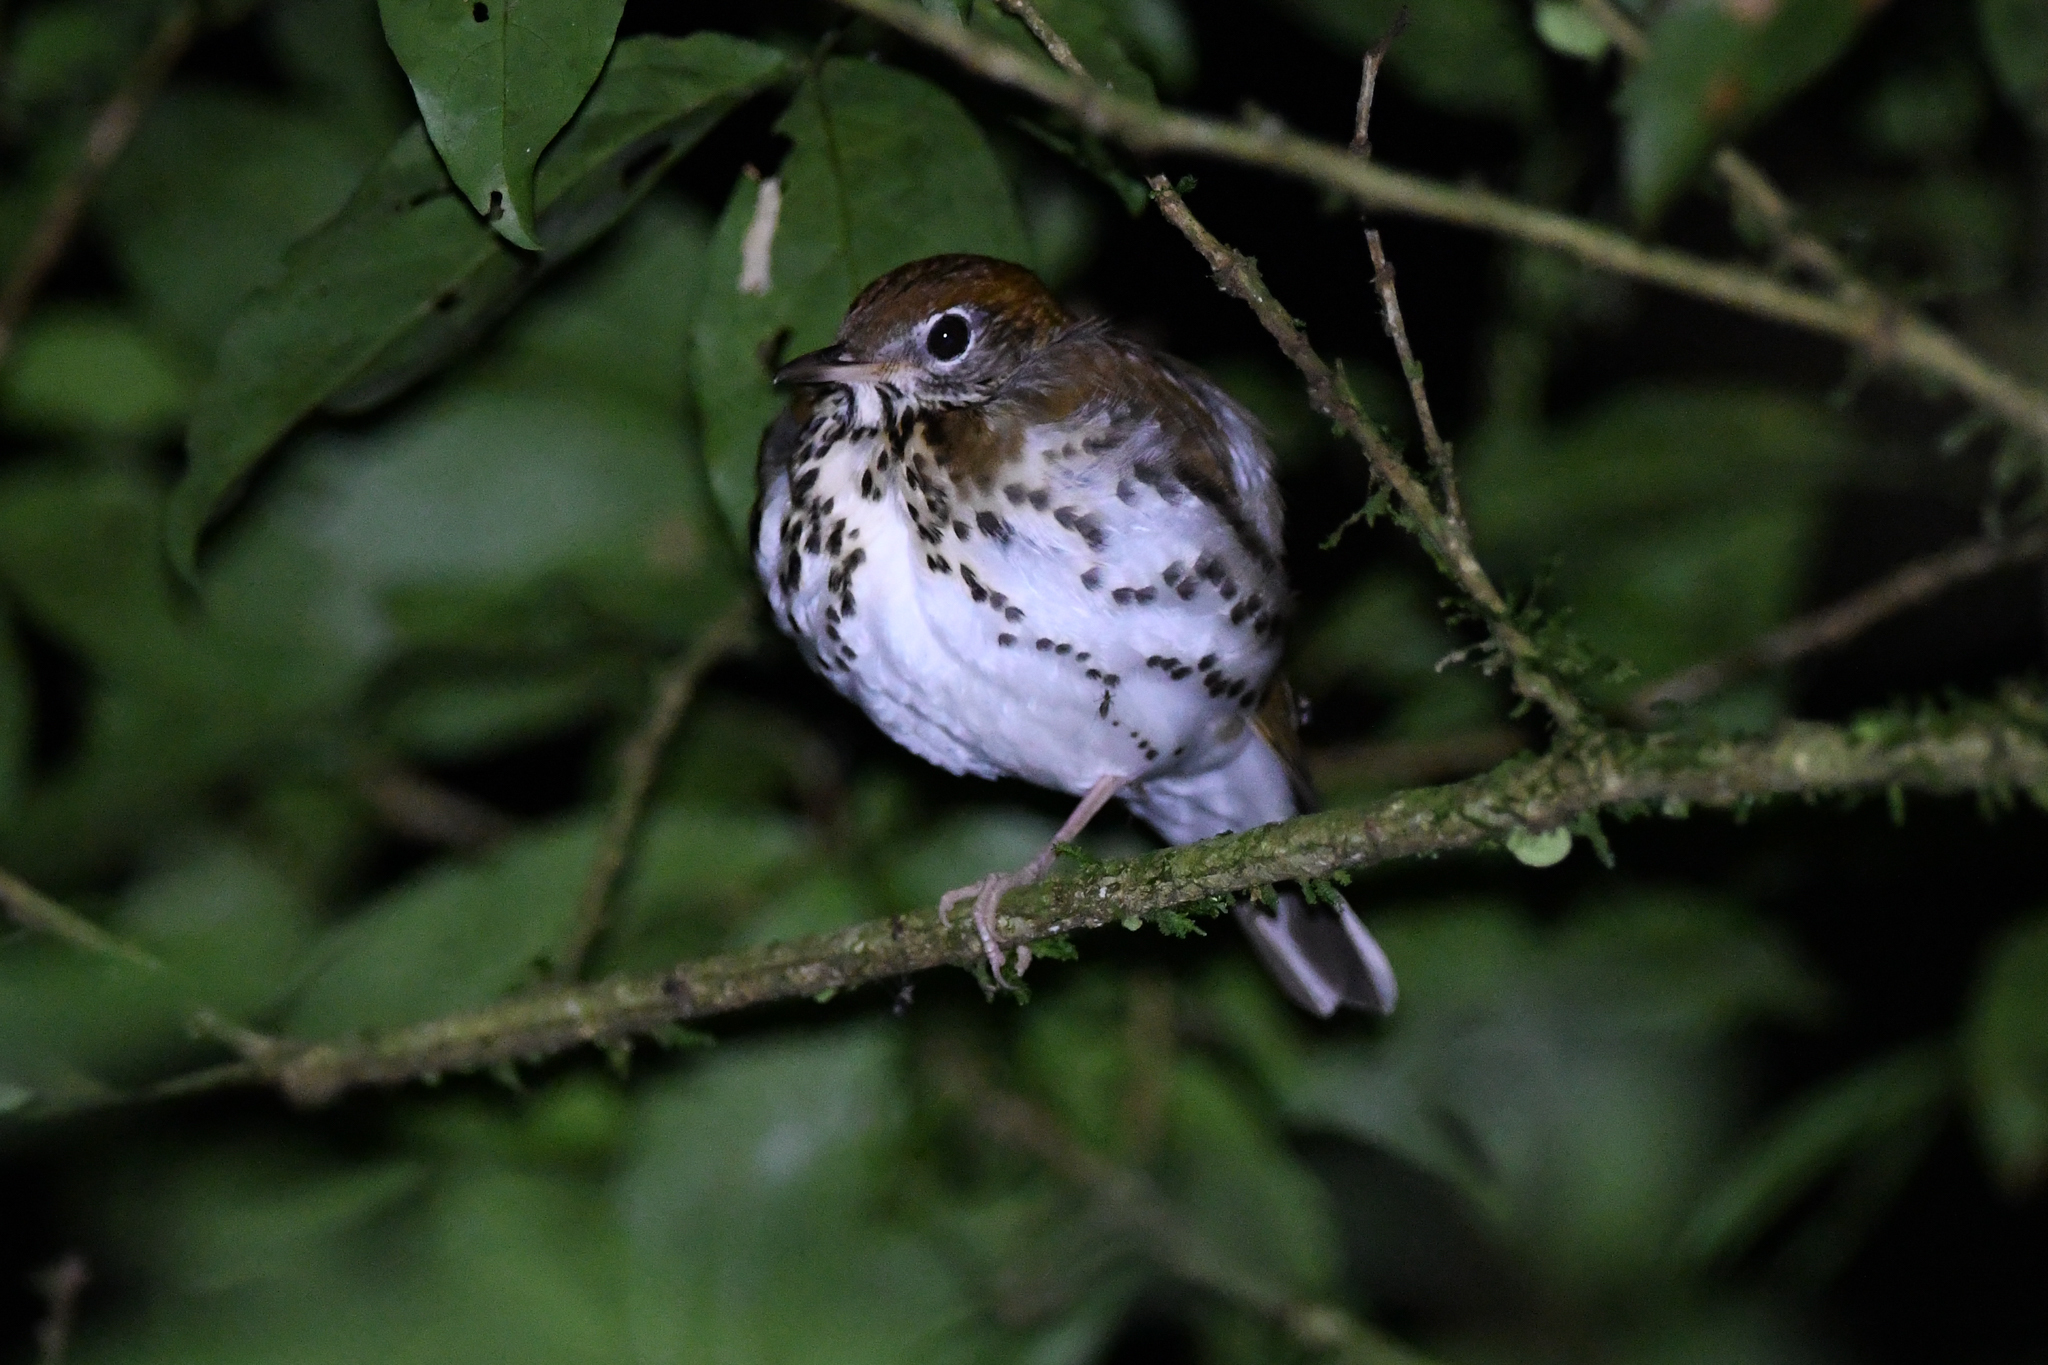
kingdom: Animalia
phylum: Chordata
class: Aves
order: Passeriformes
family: Turdidae
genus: Hylocichla
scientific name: Hylocichla mustelina
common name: Wood thrush
